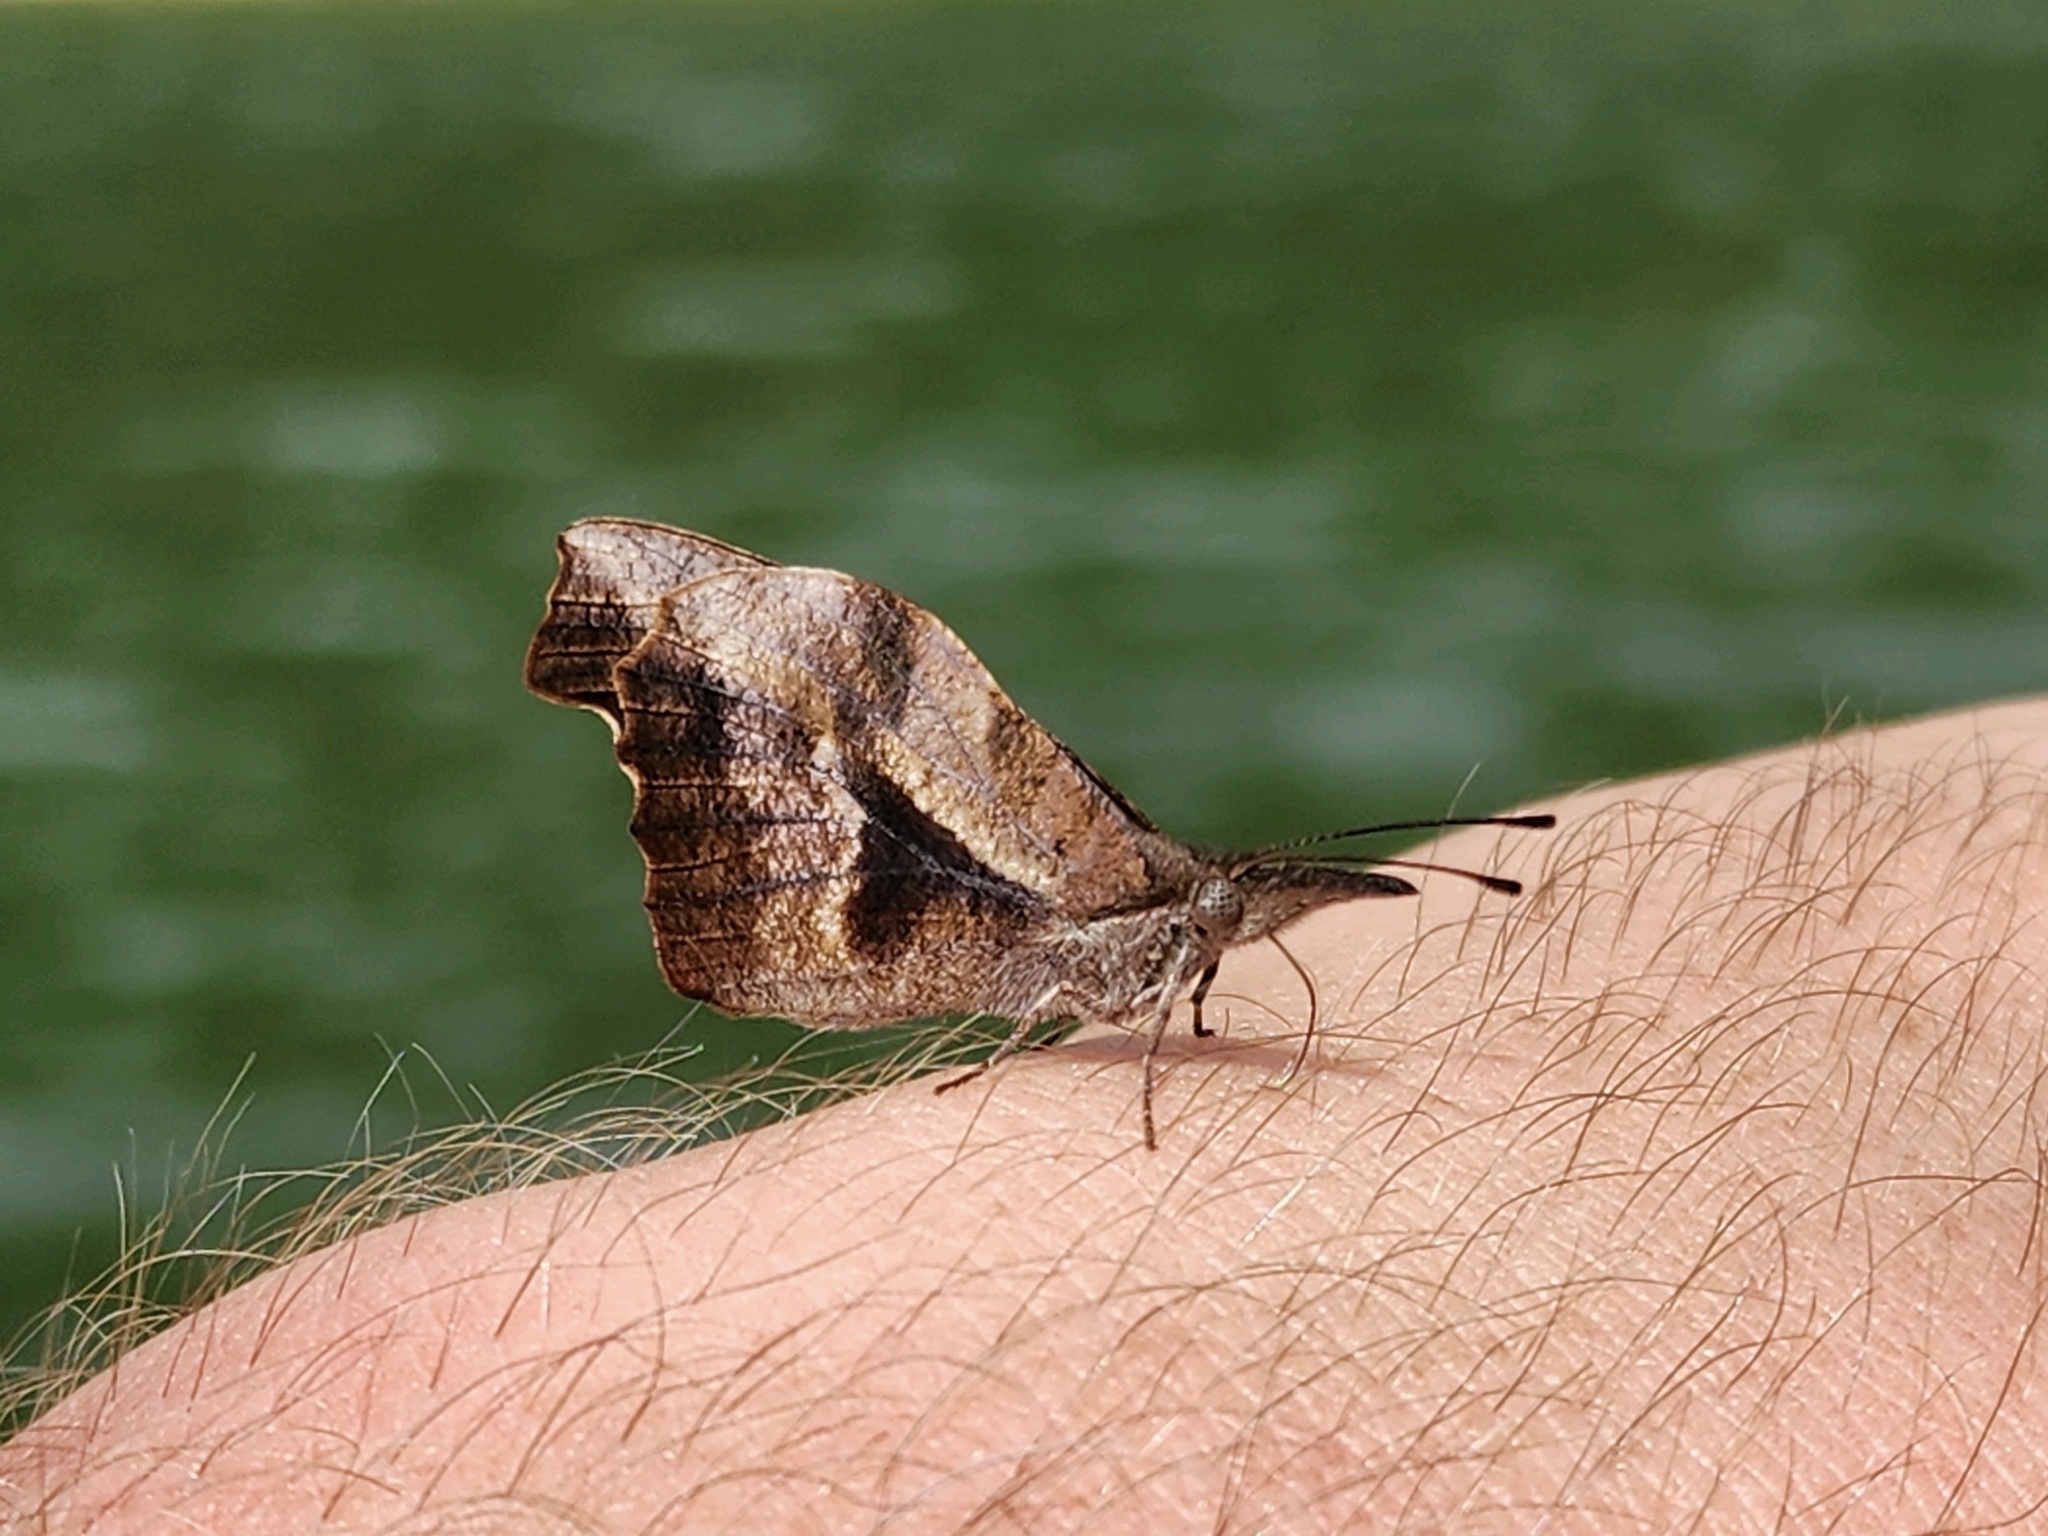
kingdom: Animalia
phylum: Arthropoda
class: Insecta
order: Lepidoptera
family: Nymphalidae
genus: Libytheana
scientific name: Libytheana carinenta
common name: American snout
